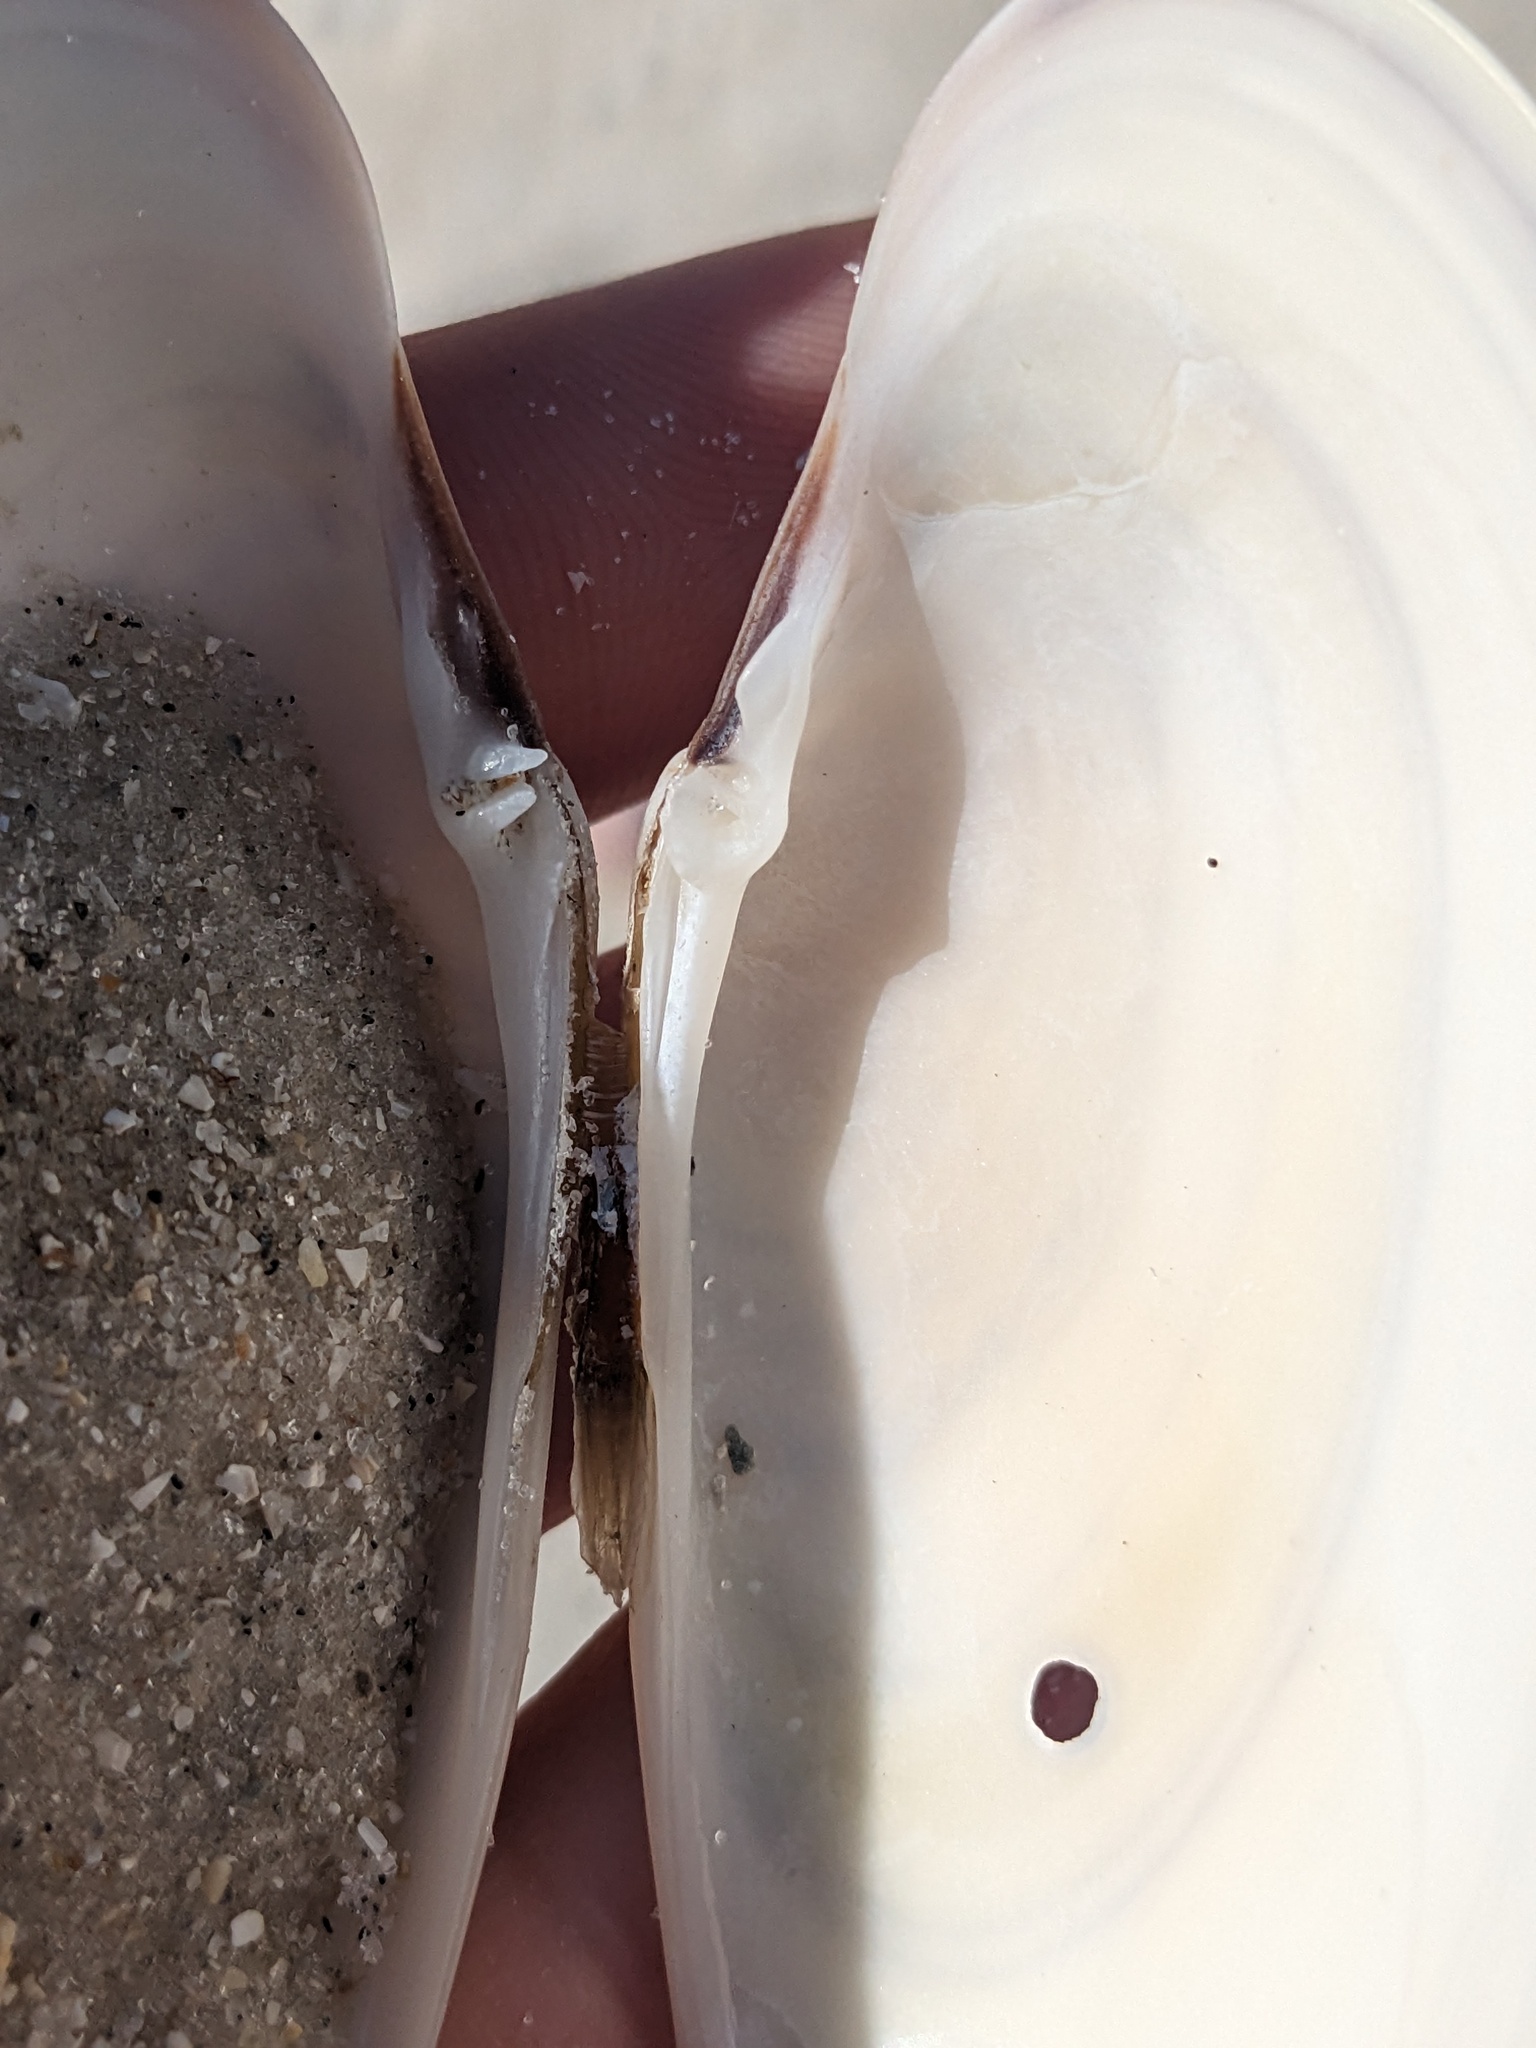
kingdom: Animalia
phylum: Mollusca
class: Bivalvia
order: Venerida
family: Veneridae
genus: Macrocallista
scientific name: Macrocallista nimbosa
